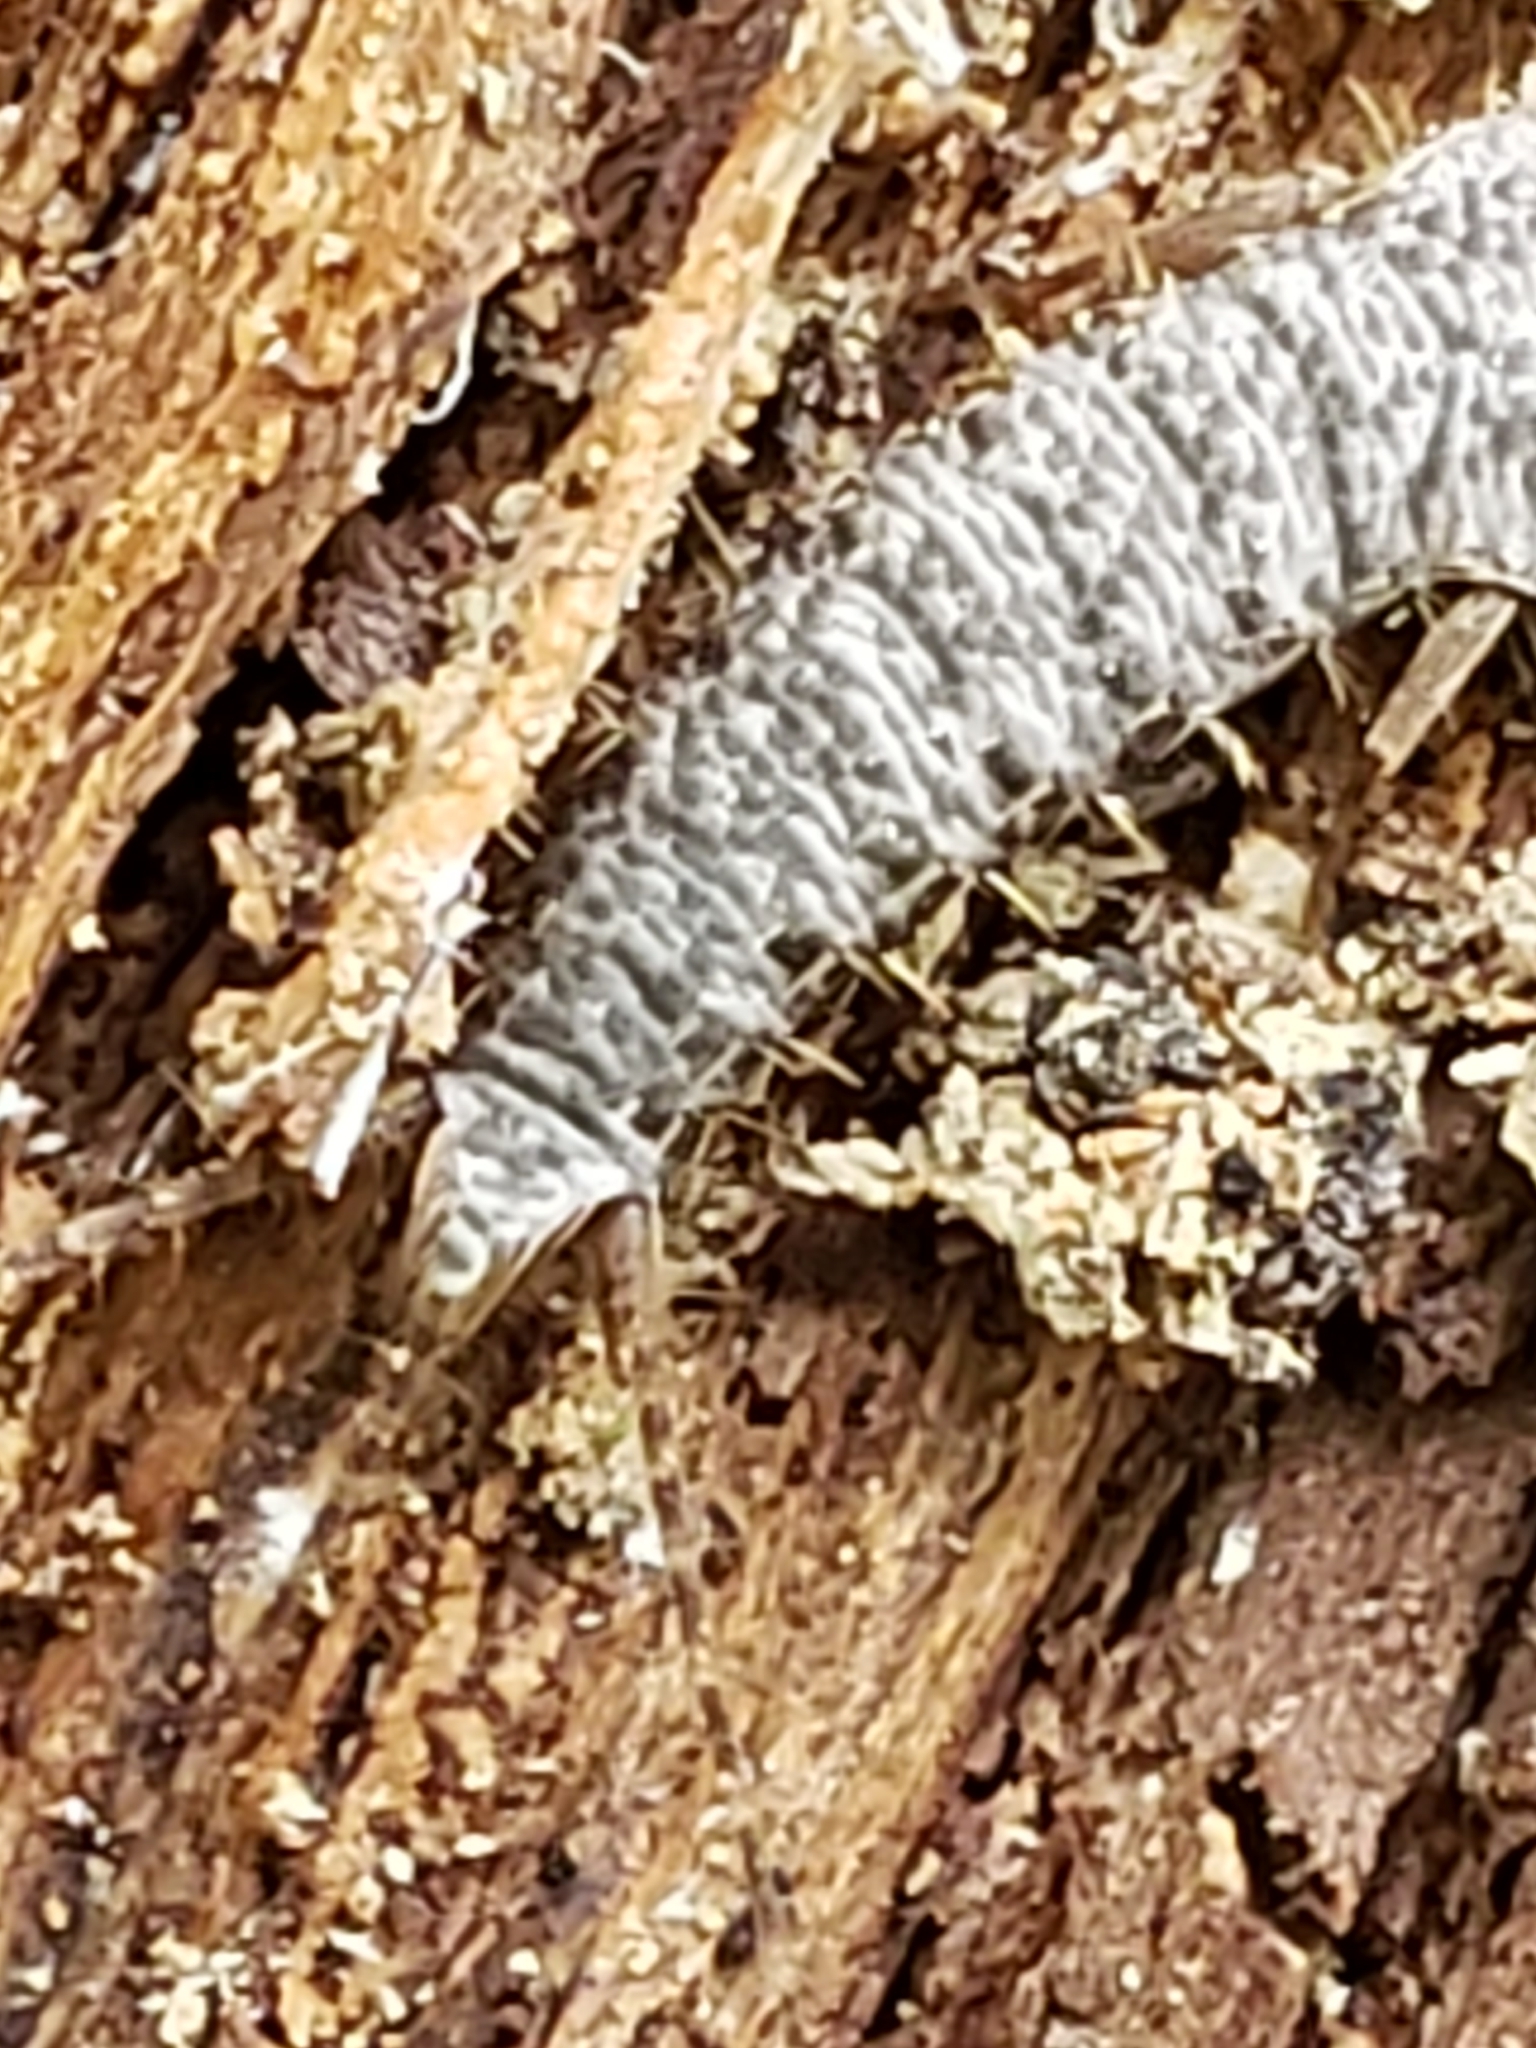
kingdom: Animalia
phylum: Arthropoda
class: Insecta
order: Zygentoma
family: Lepismatidae
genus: Allacrotelsa
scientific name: Allacrotelsa spinulata
